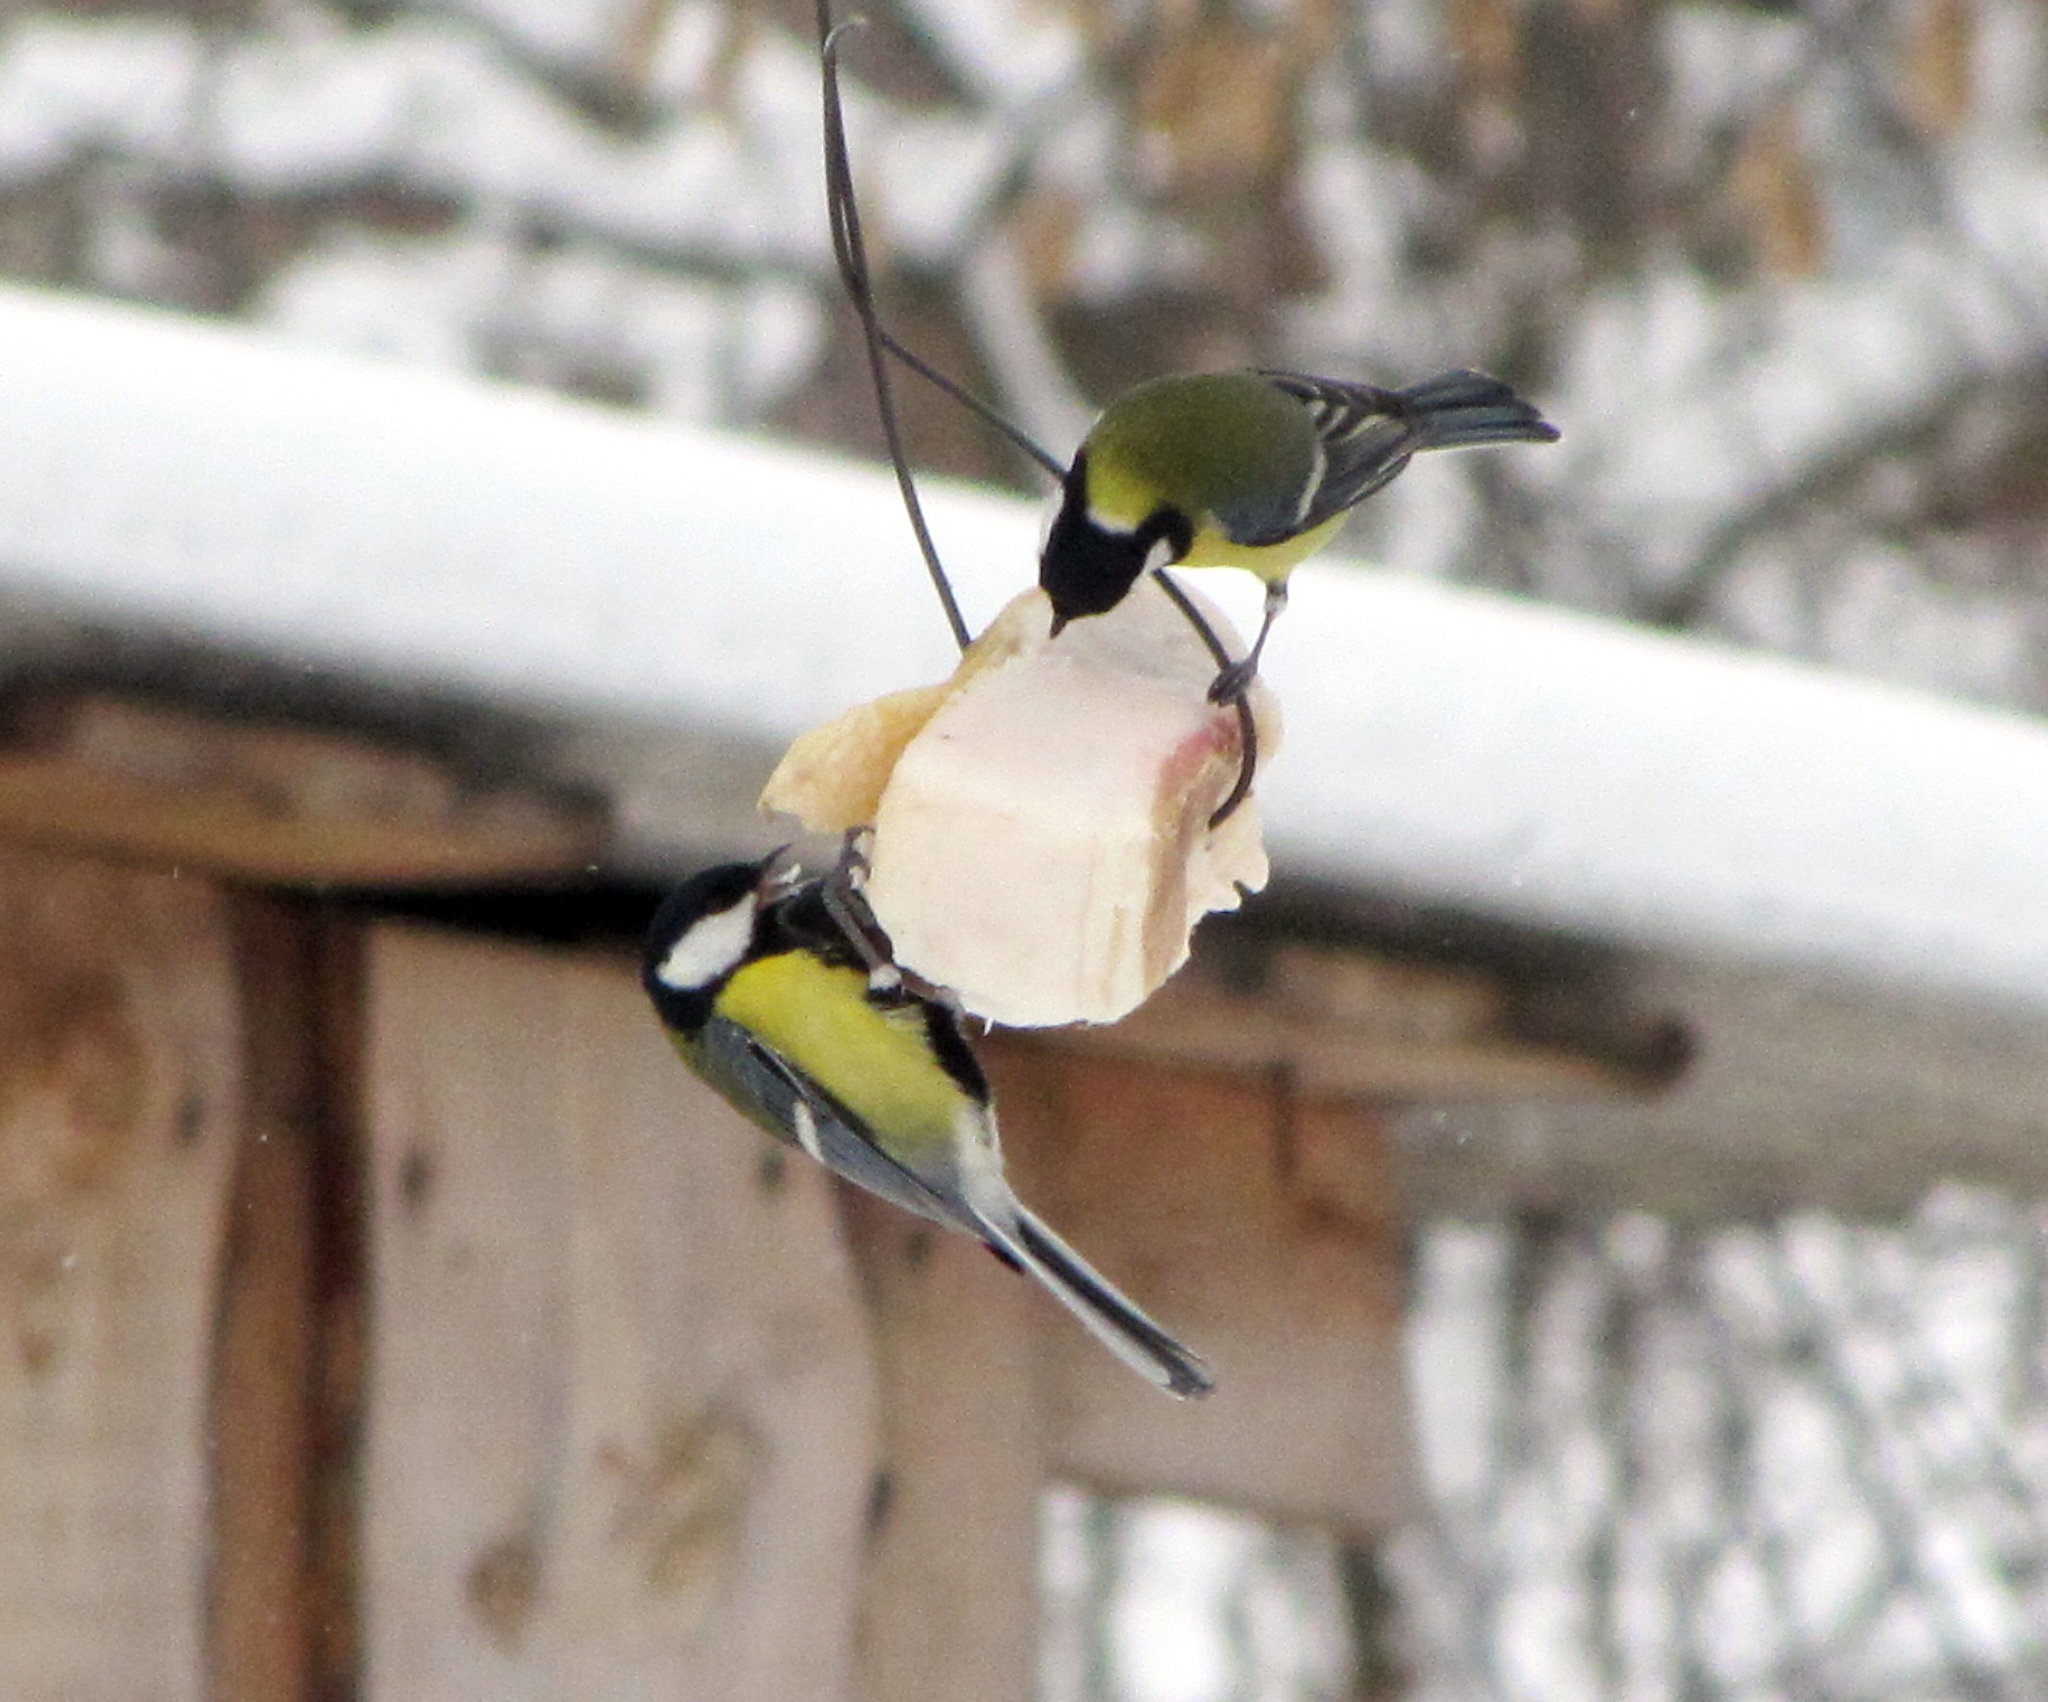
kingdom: Animalia
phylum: Chordata
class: Aves
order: Passeriformes
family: Paridae
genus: Parus
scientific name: Parus major
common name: Great tit
